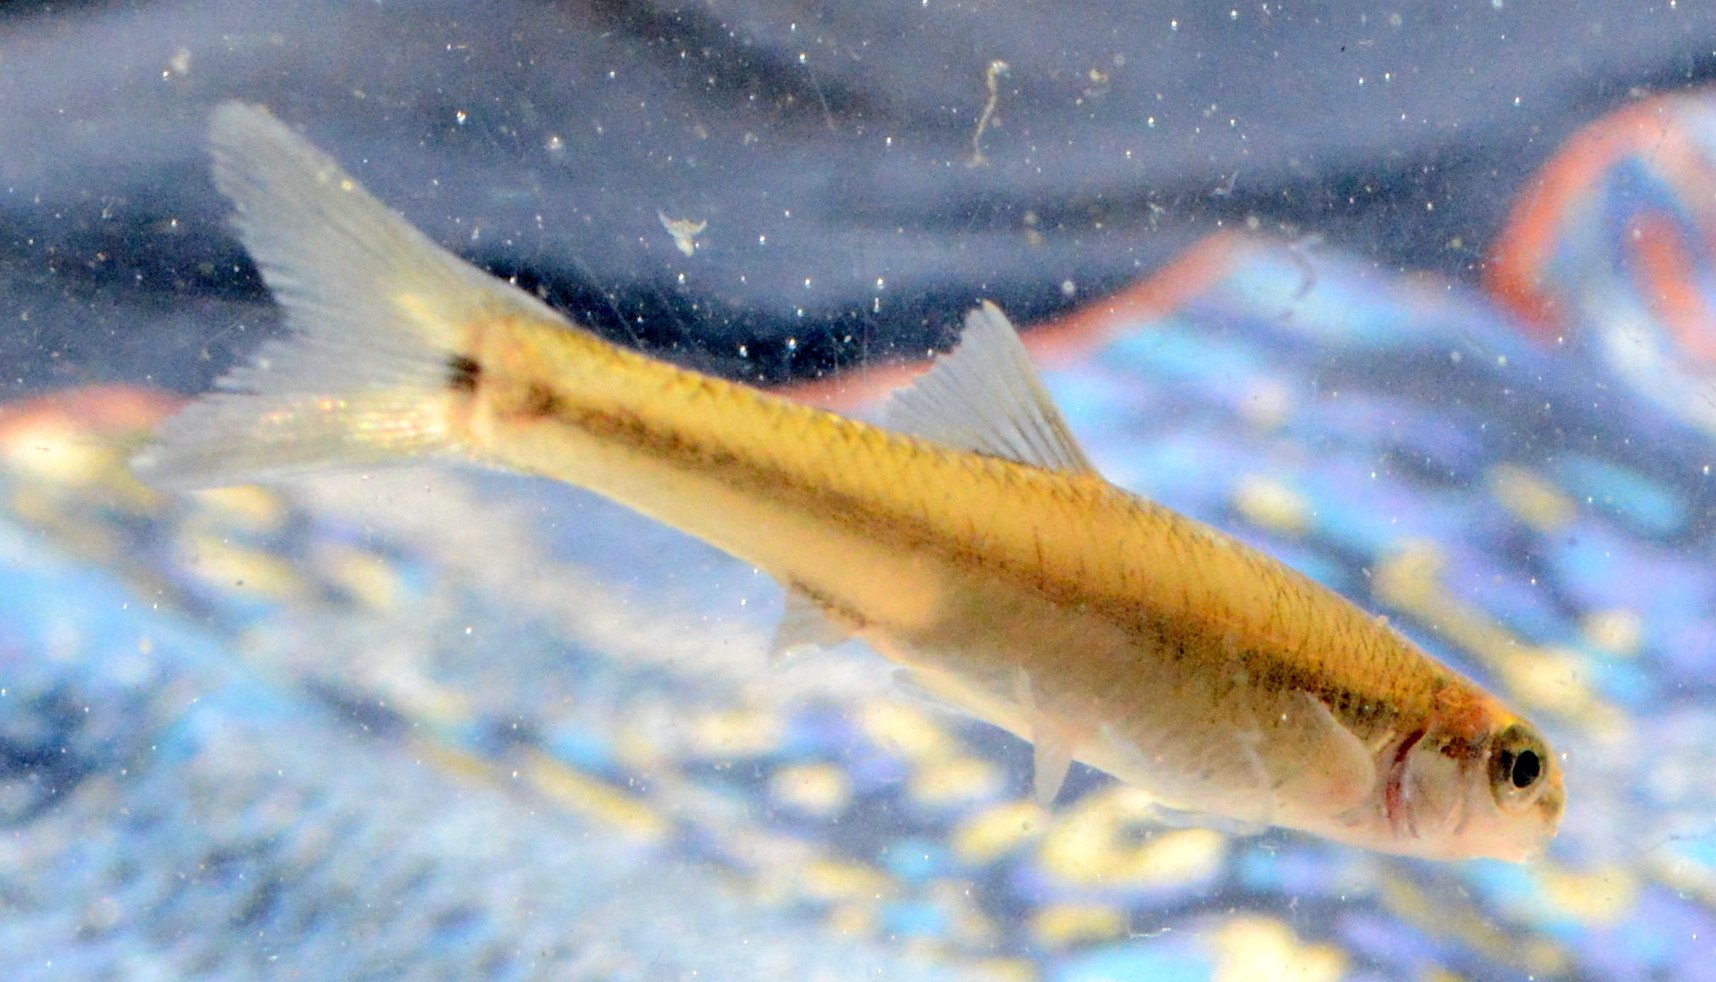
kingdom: Animalia
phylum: Chordata
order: Cypriniformes
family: Cyprinidae
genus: Pimephales
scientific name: Pimephales notatus
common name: Bluntnose minnow
